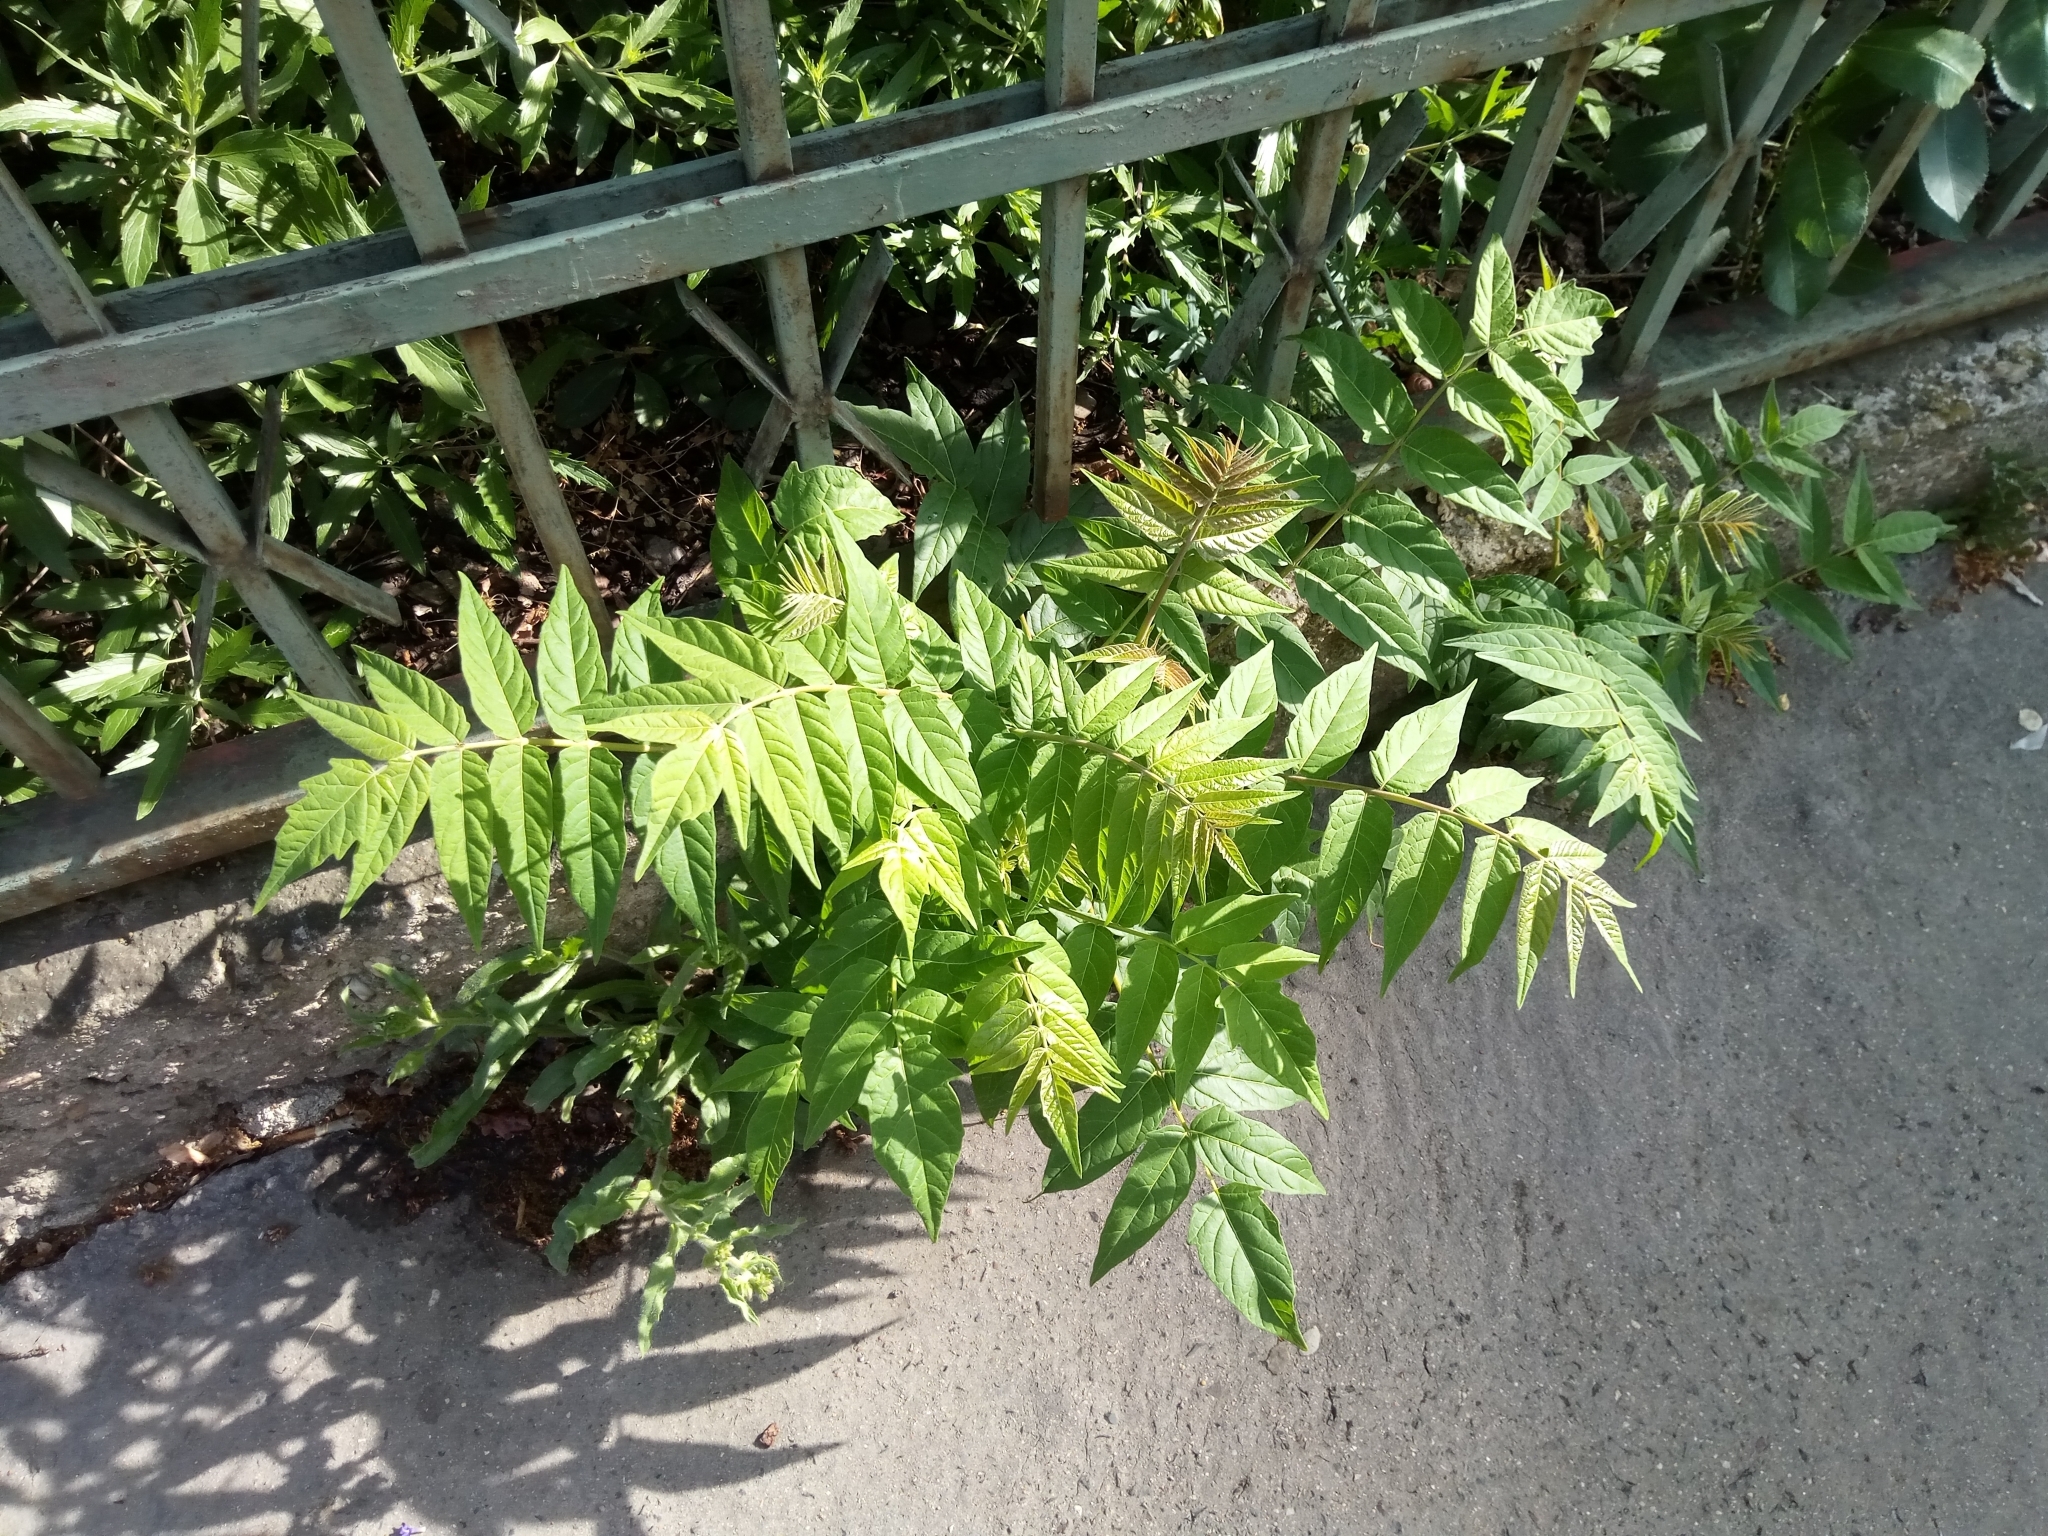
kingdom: Plantae
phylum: Tracheophyta
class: Magnoliopsida
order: Sapindales
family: Simaroubaceae
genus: Ailanthus
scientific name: Ailanthus altissima
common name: Tree-of-heaven
